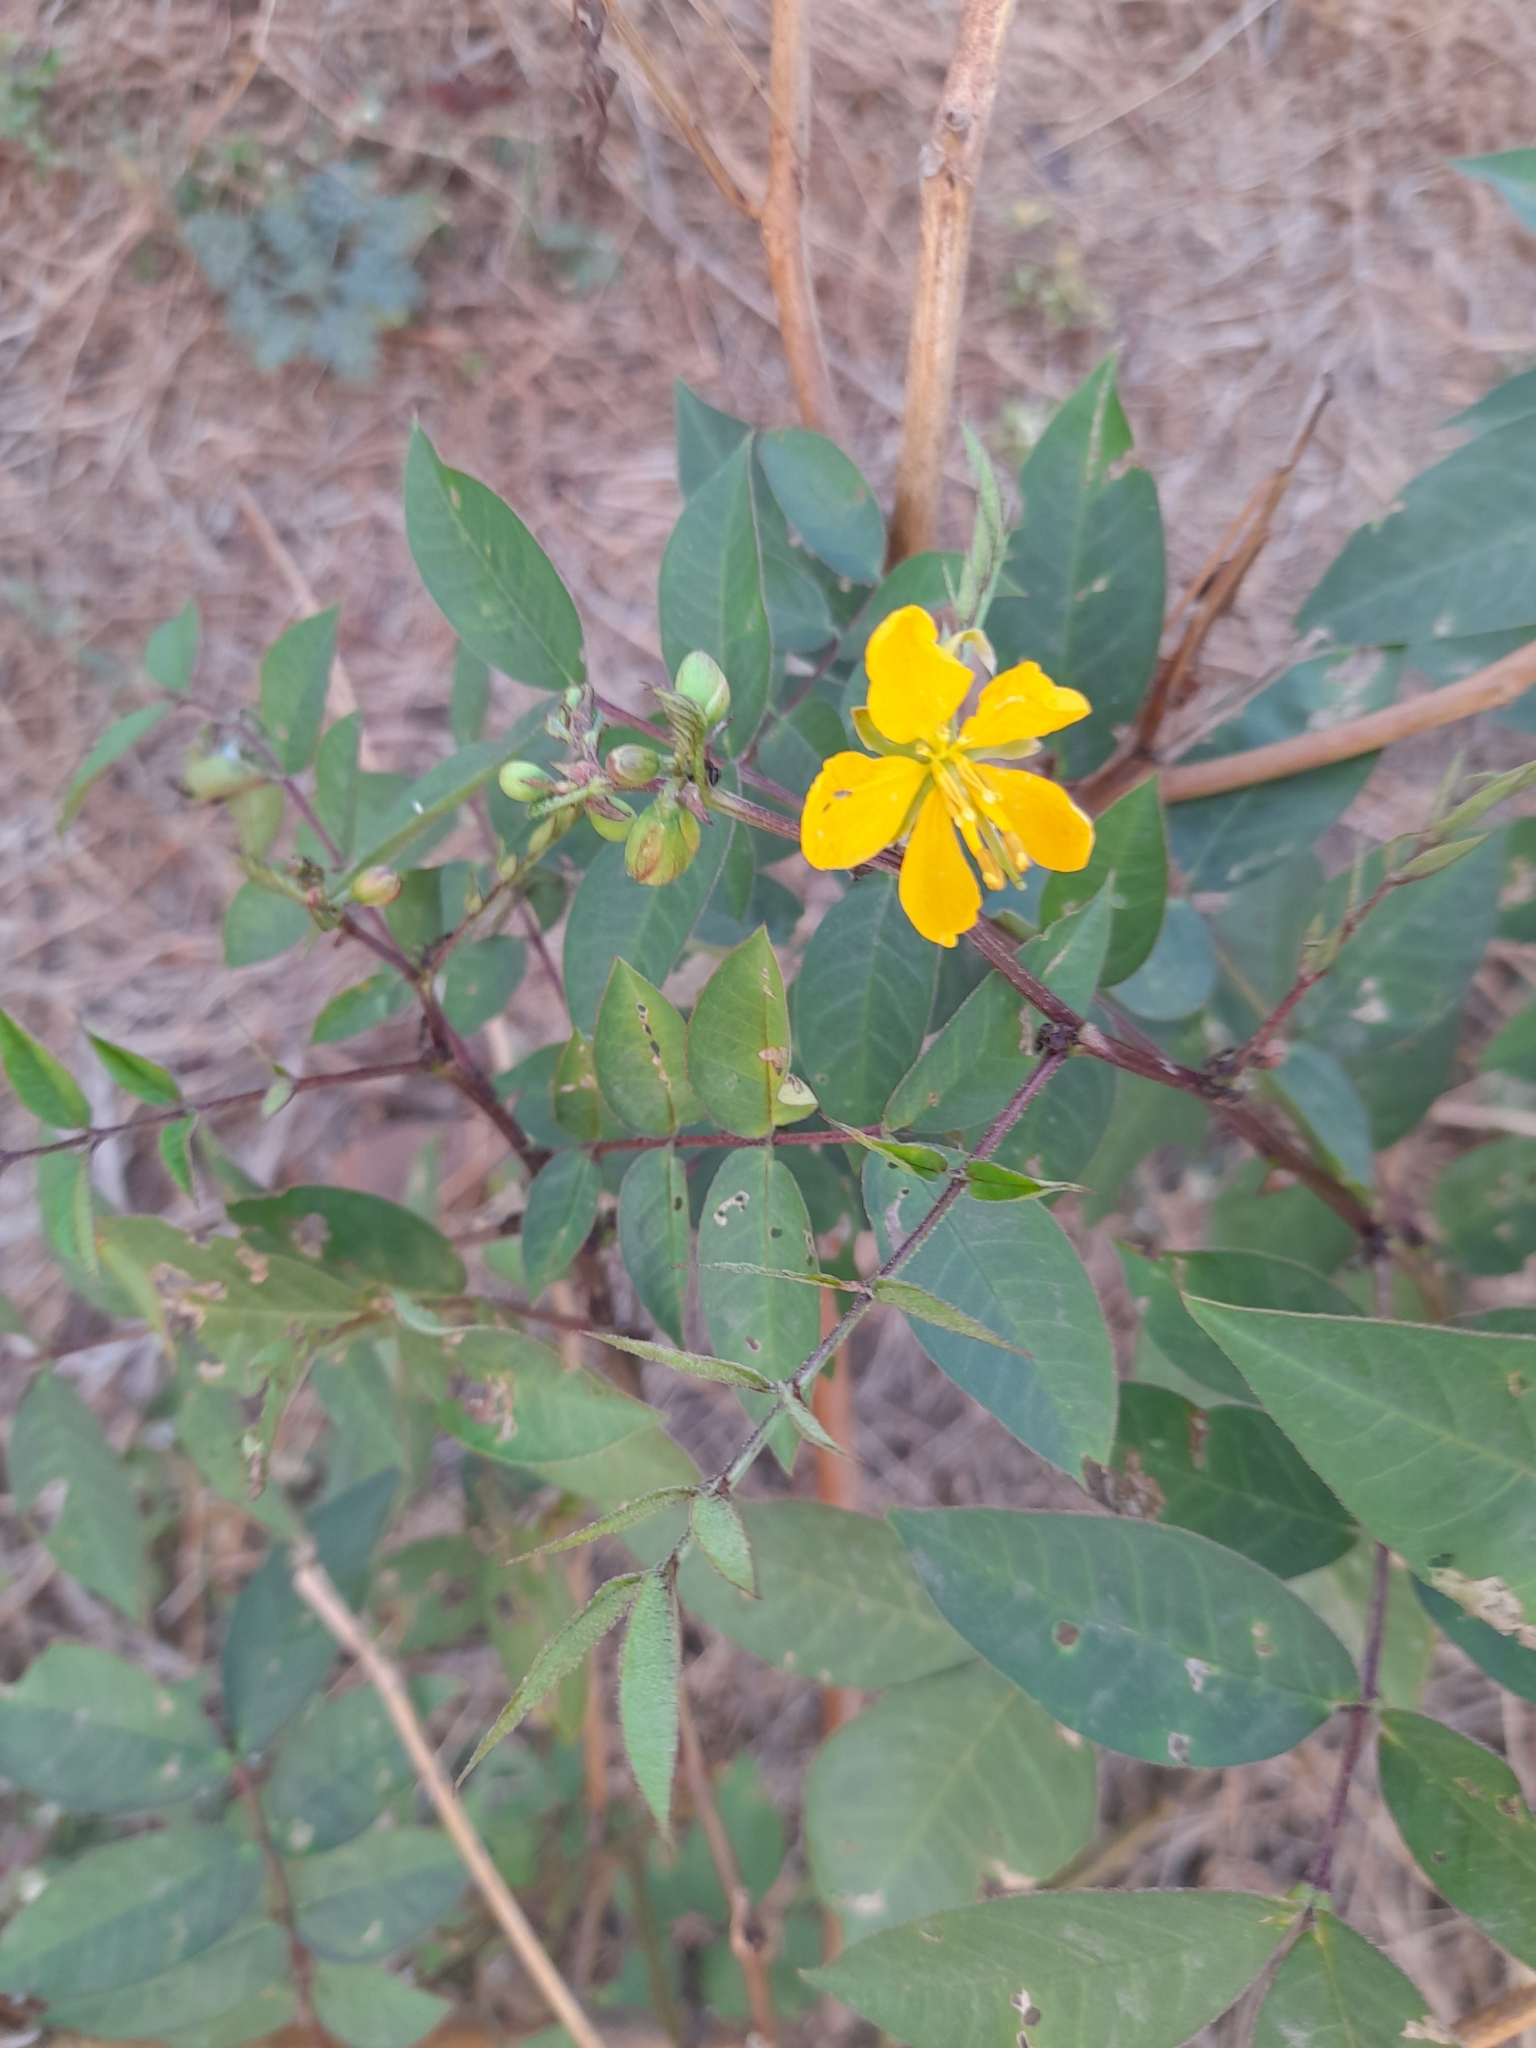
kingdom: Plantae
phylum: Tracheophyta
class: Magnoliopsida
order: Fabales
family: Fabaceae
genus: Senna
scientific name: Senna occidentalis
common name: Septicweed
